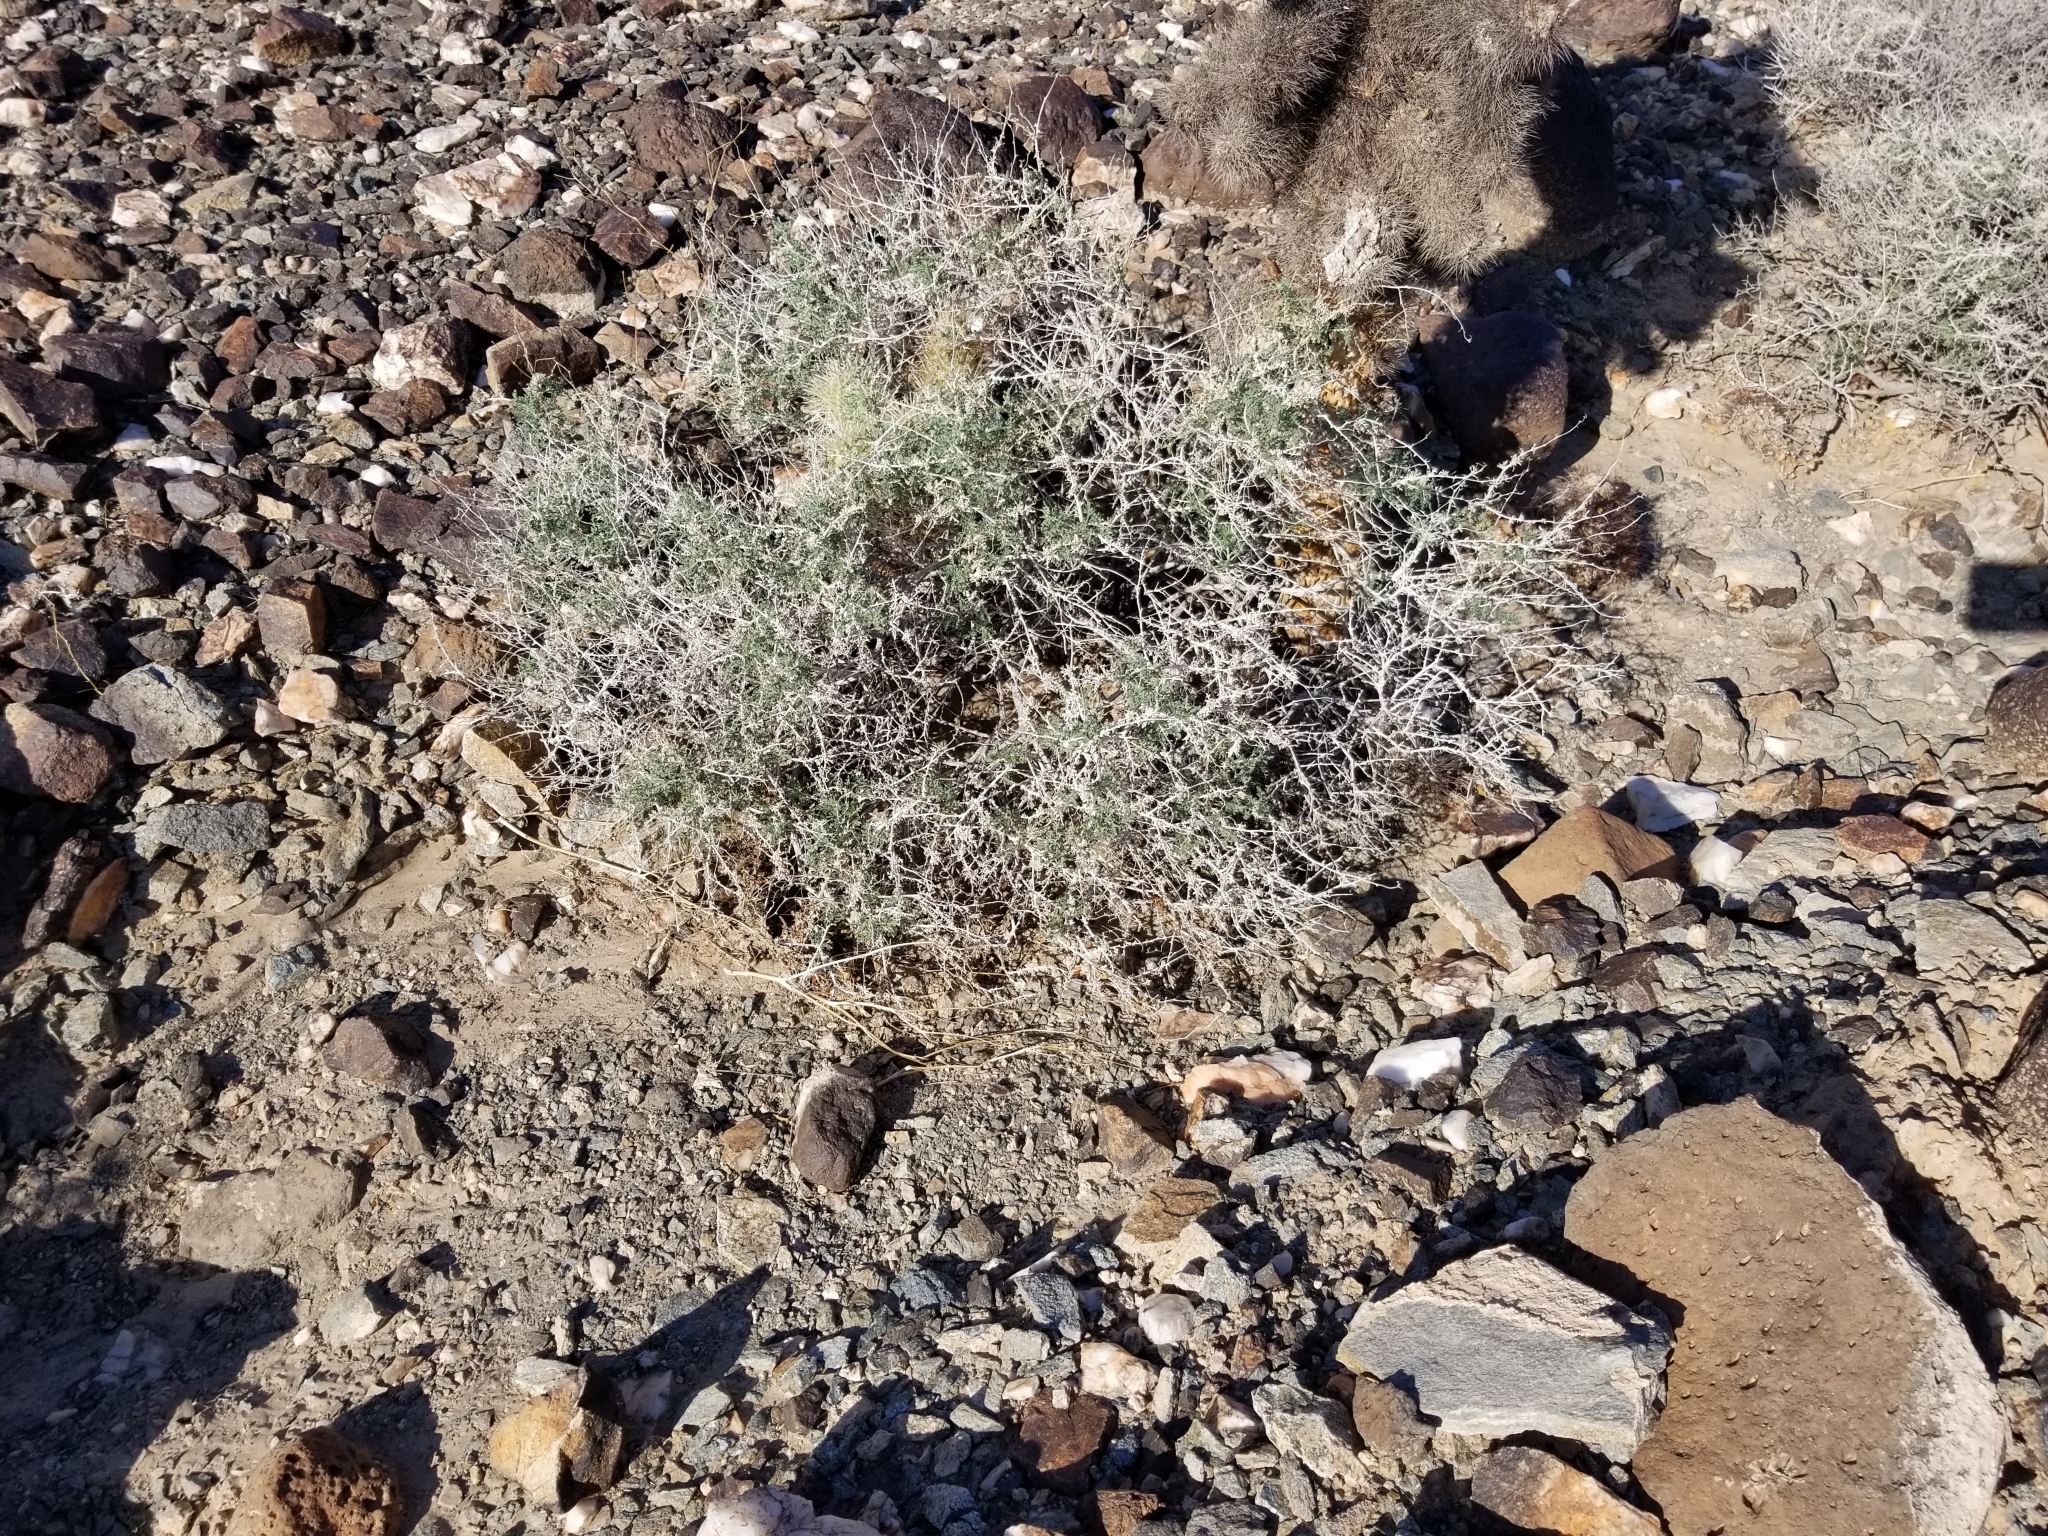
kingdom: Plantae
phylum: Tracheophyta
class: Magnoliopsida
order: Asterales
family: Asteraceae
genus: Ambrosia
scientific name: Ambrosia dumosa
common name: Bur-sage
